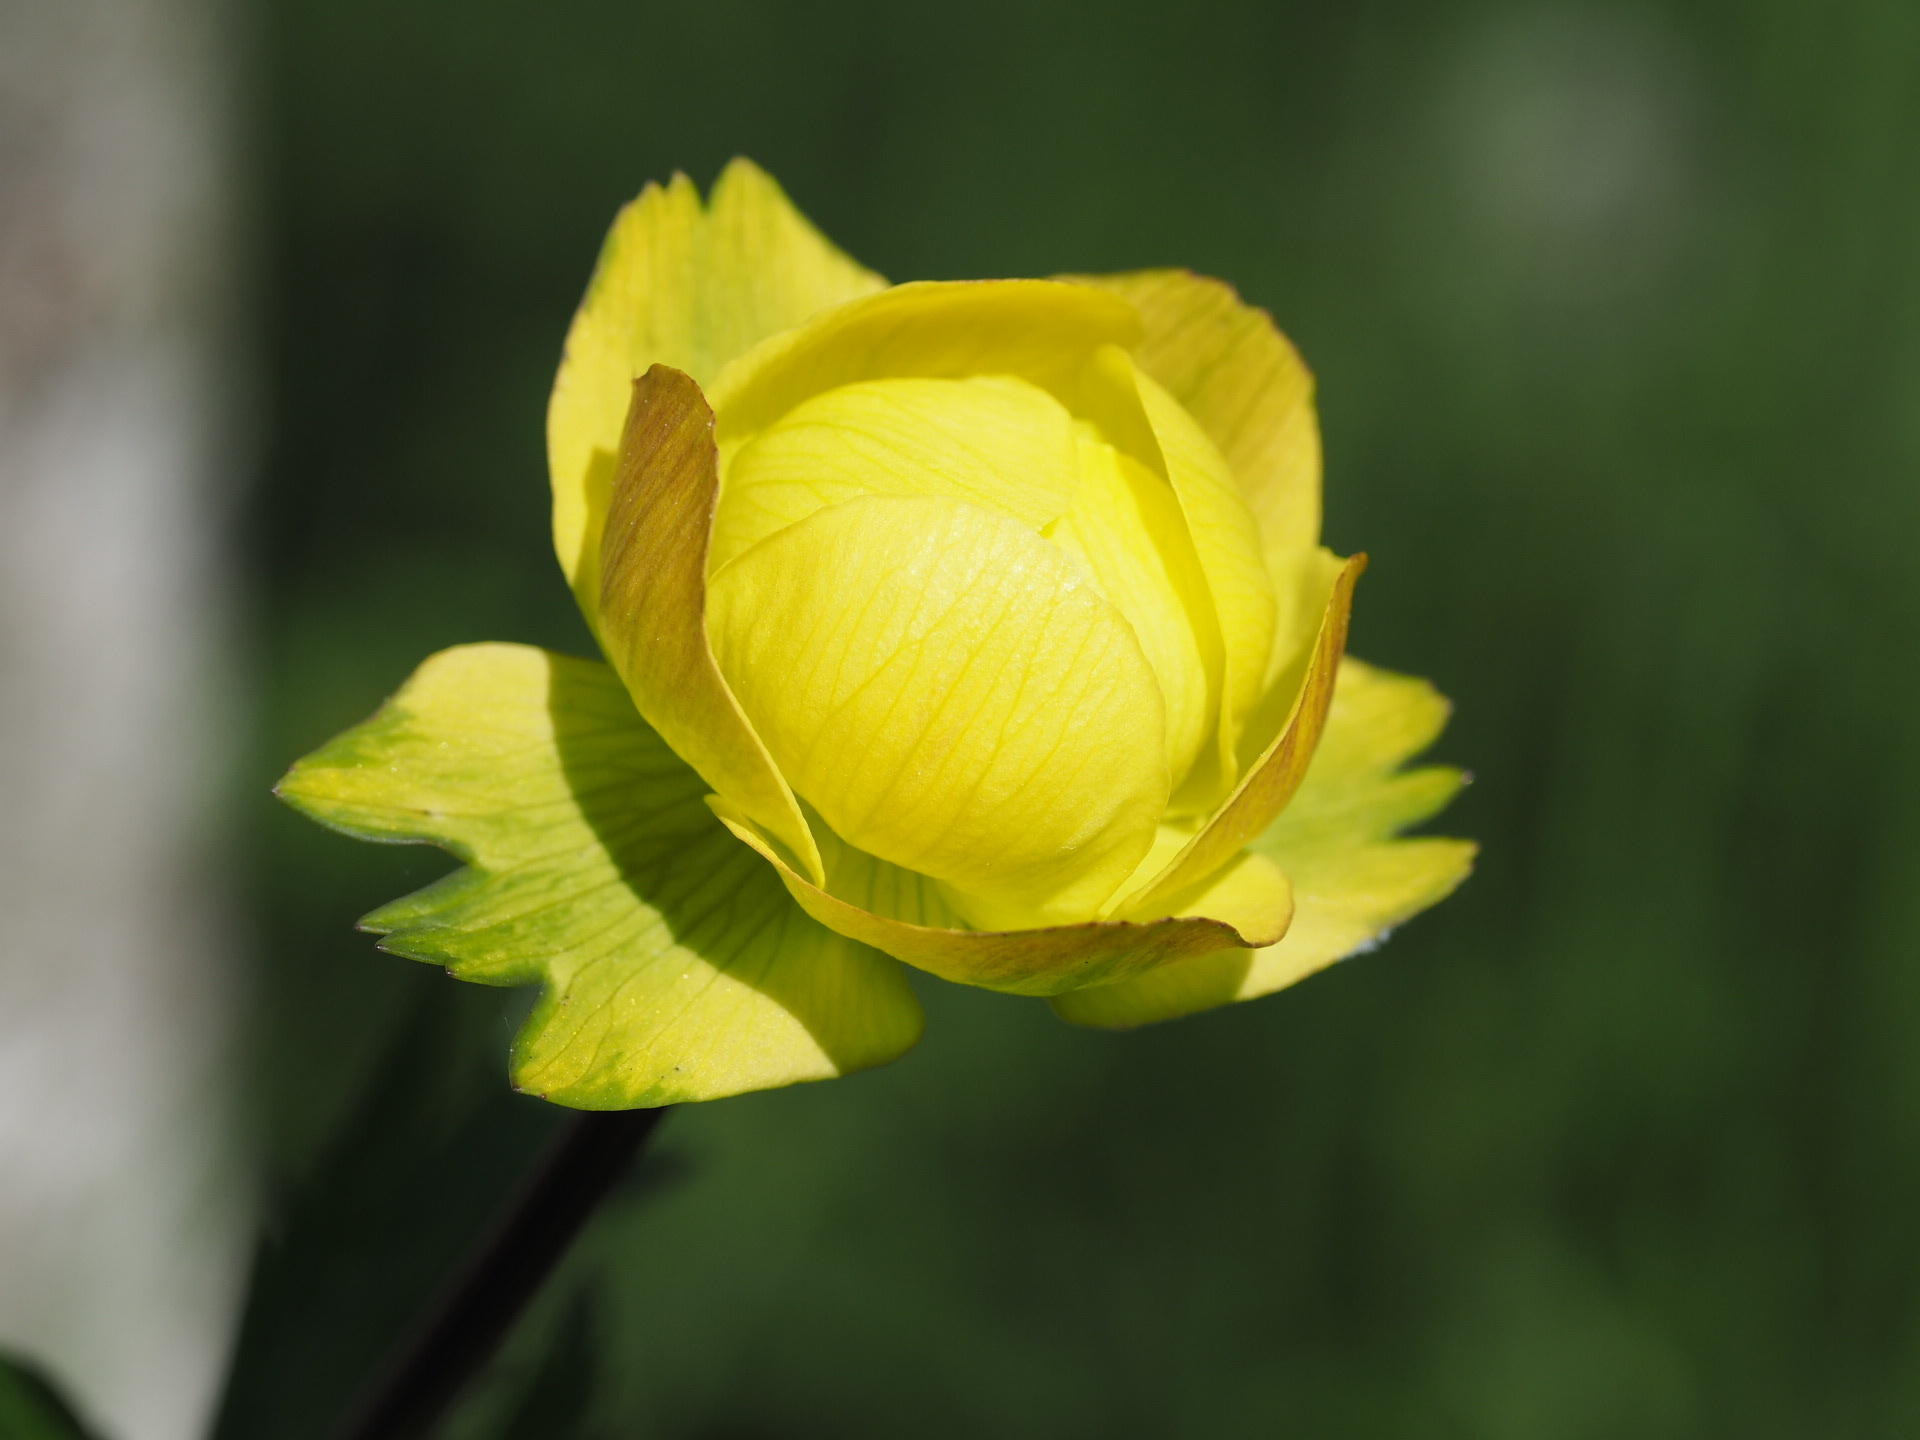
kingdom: Plantae
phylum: Tracheophyta
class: Magnoliopsida
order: Ranunculales
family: Ranunculaceae
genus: Trollius
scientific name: Trollius europaeus
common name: European globeflower
